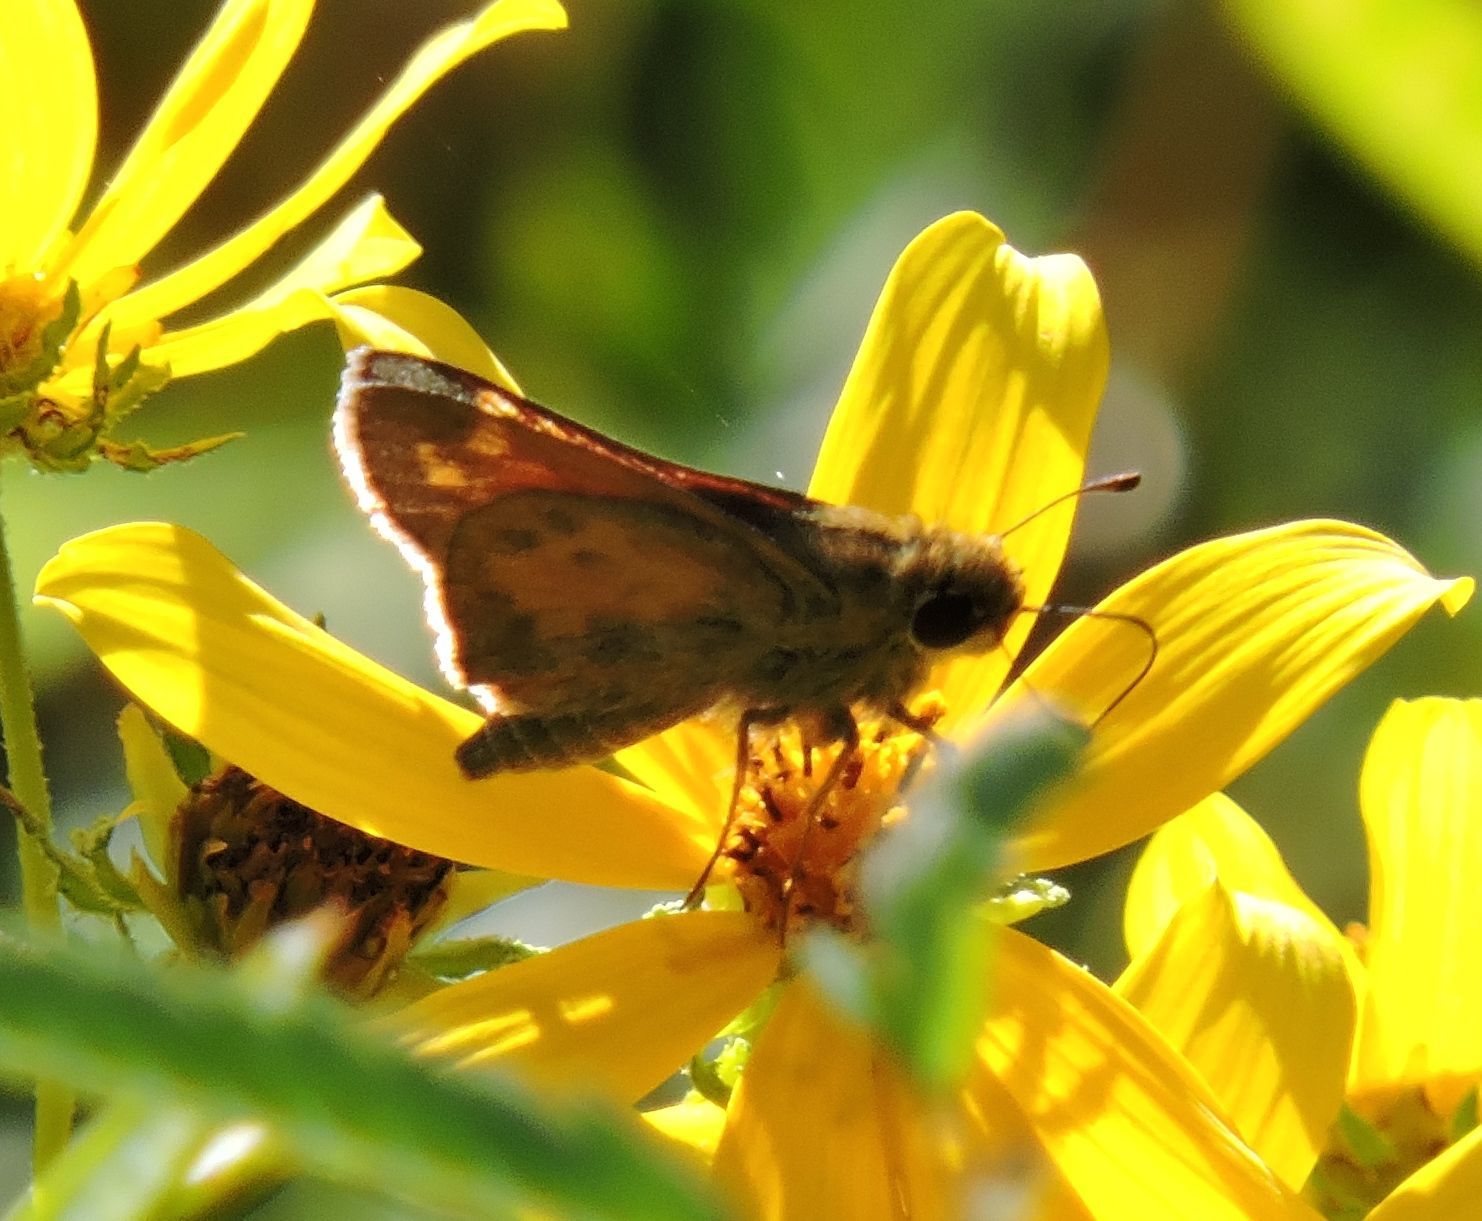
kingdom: Animalia
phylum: Arthropoda
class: Insecta
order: Lepidoptera
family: Hesperiidae
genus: Atalopedes
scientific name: Atalopedes
